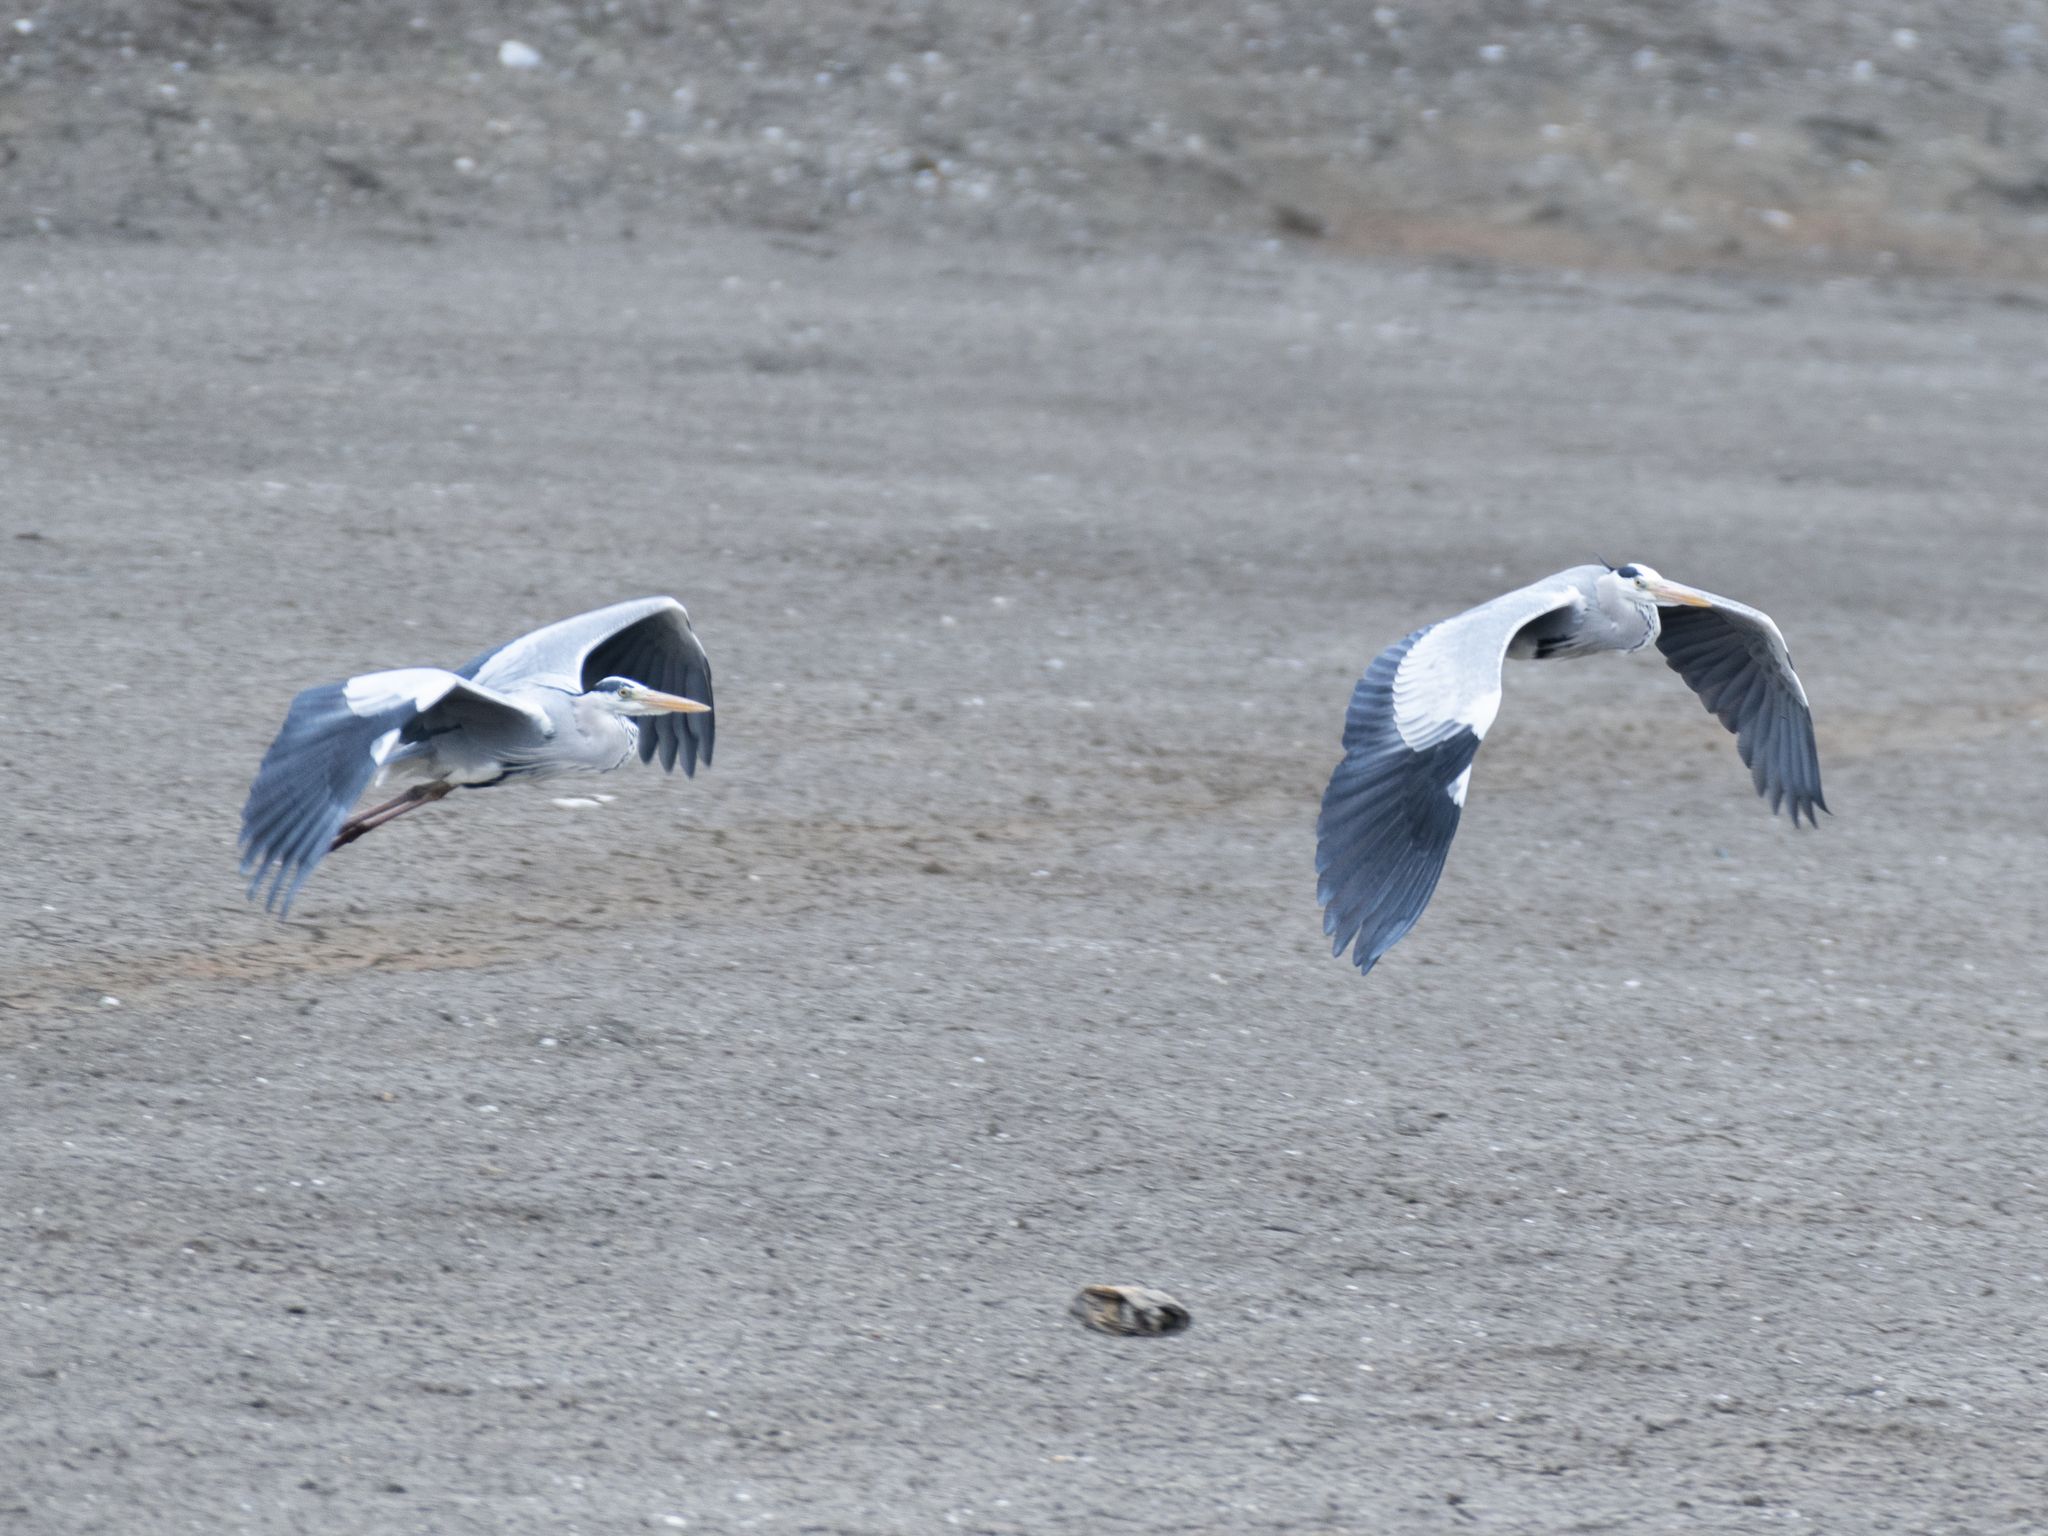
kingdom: Animalia
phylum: Chordata
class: Aves
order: Pelecaniformes
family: Ardeidae
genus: Ardea
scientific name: Ardea cinerea
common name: Grey heron
